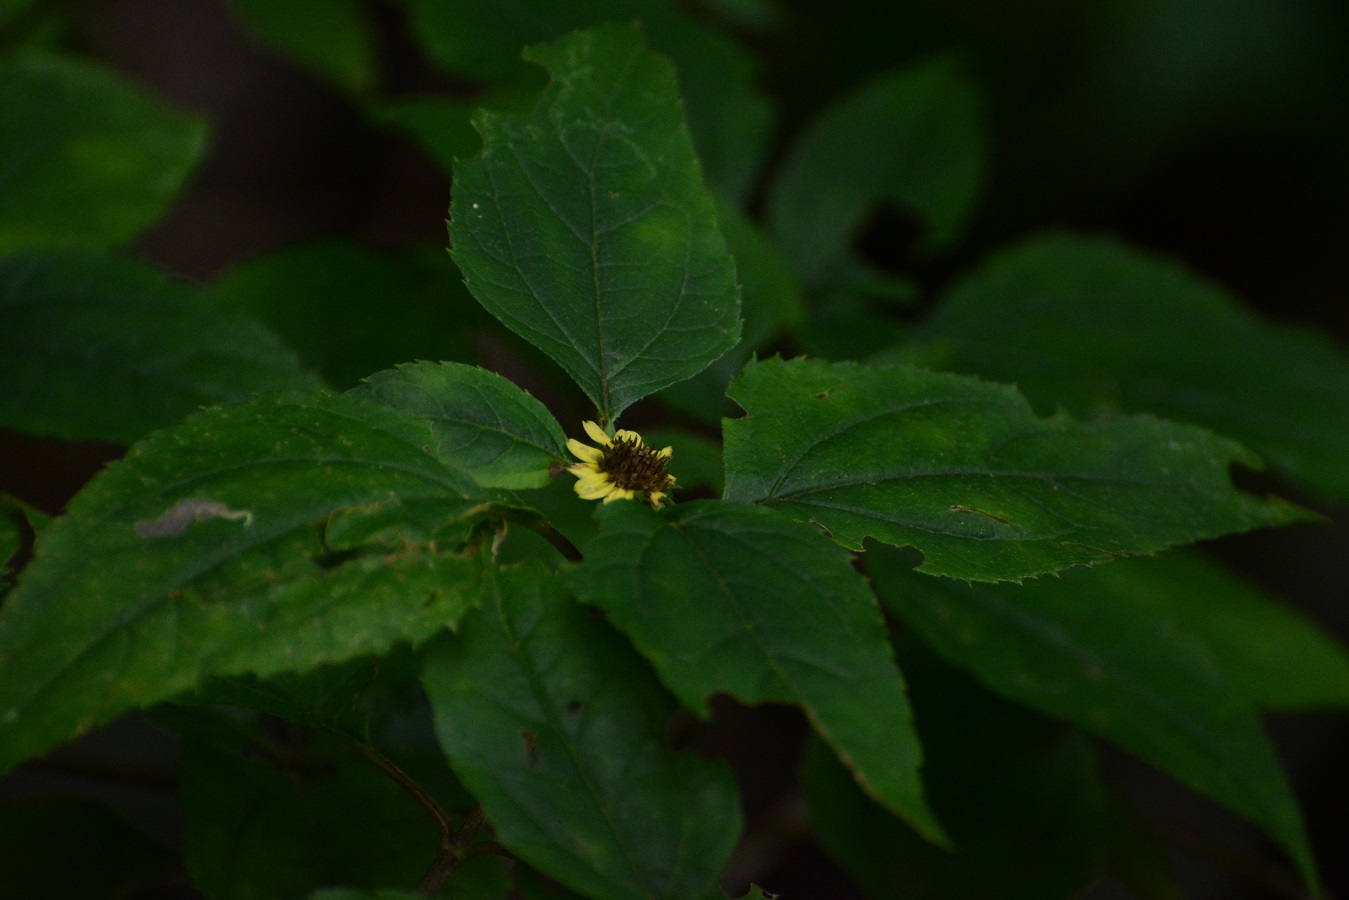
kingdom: Plantae
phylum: Tracheophyta
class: Magnoliopsida
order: Asterales
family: Asteraceae
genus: Philactis
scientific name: Philactis zinnioides
